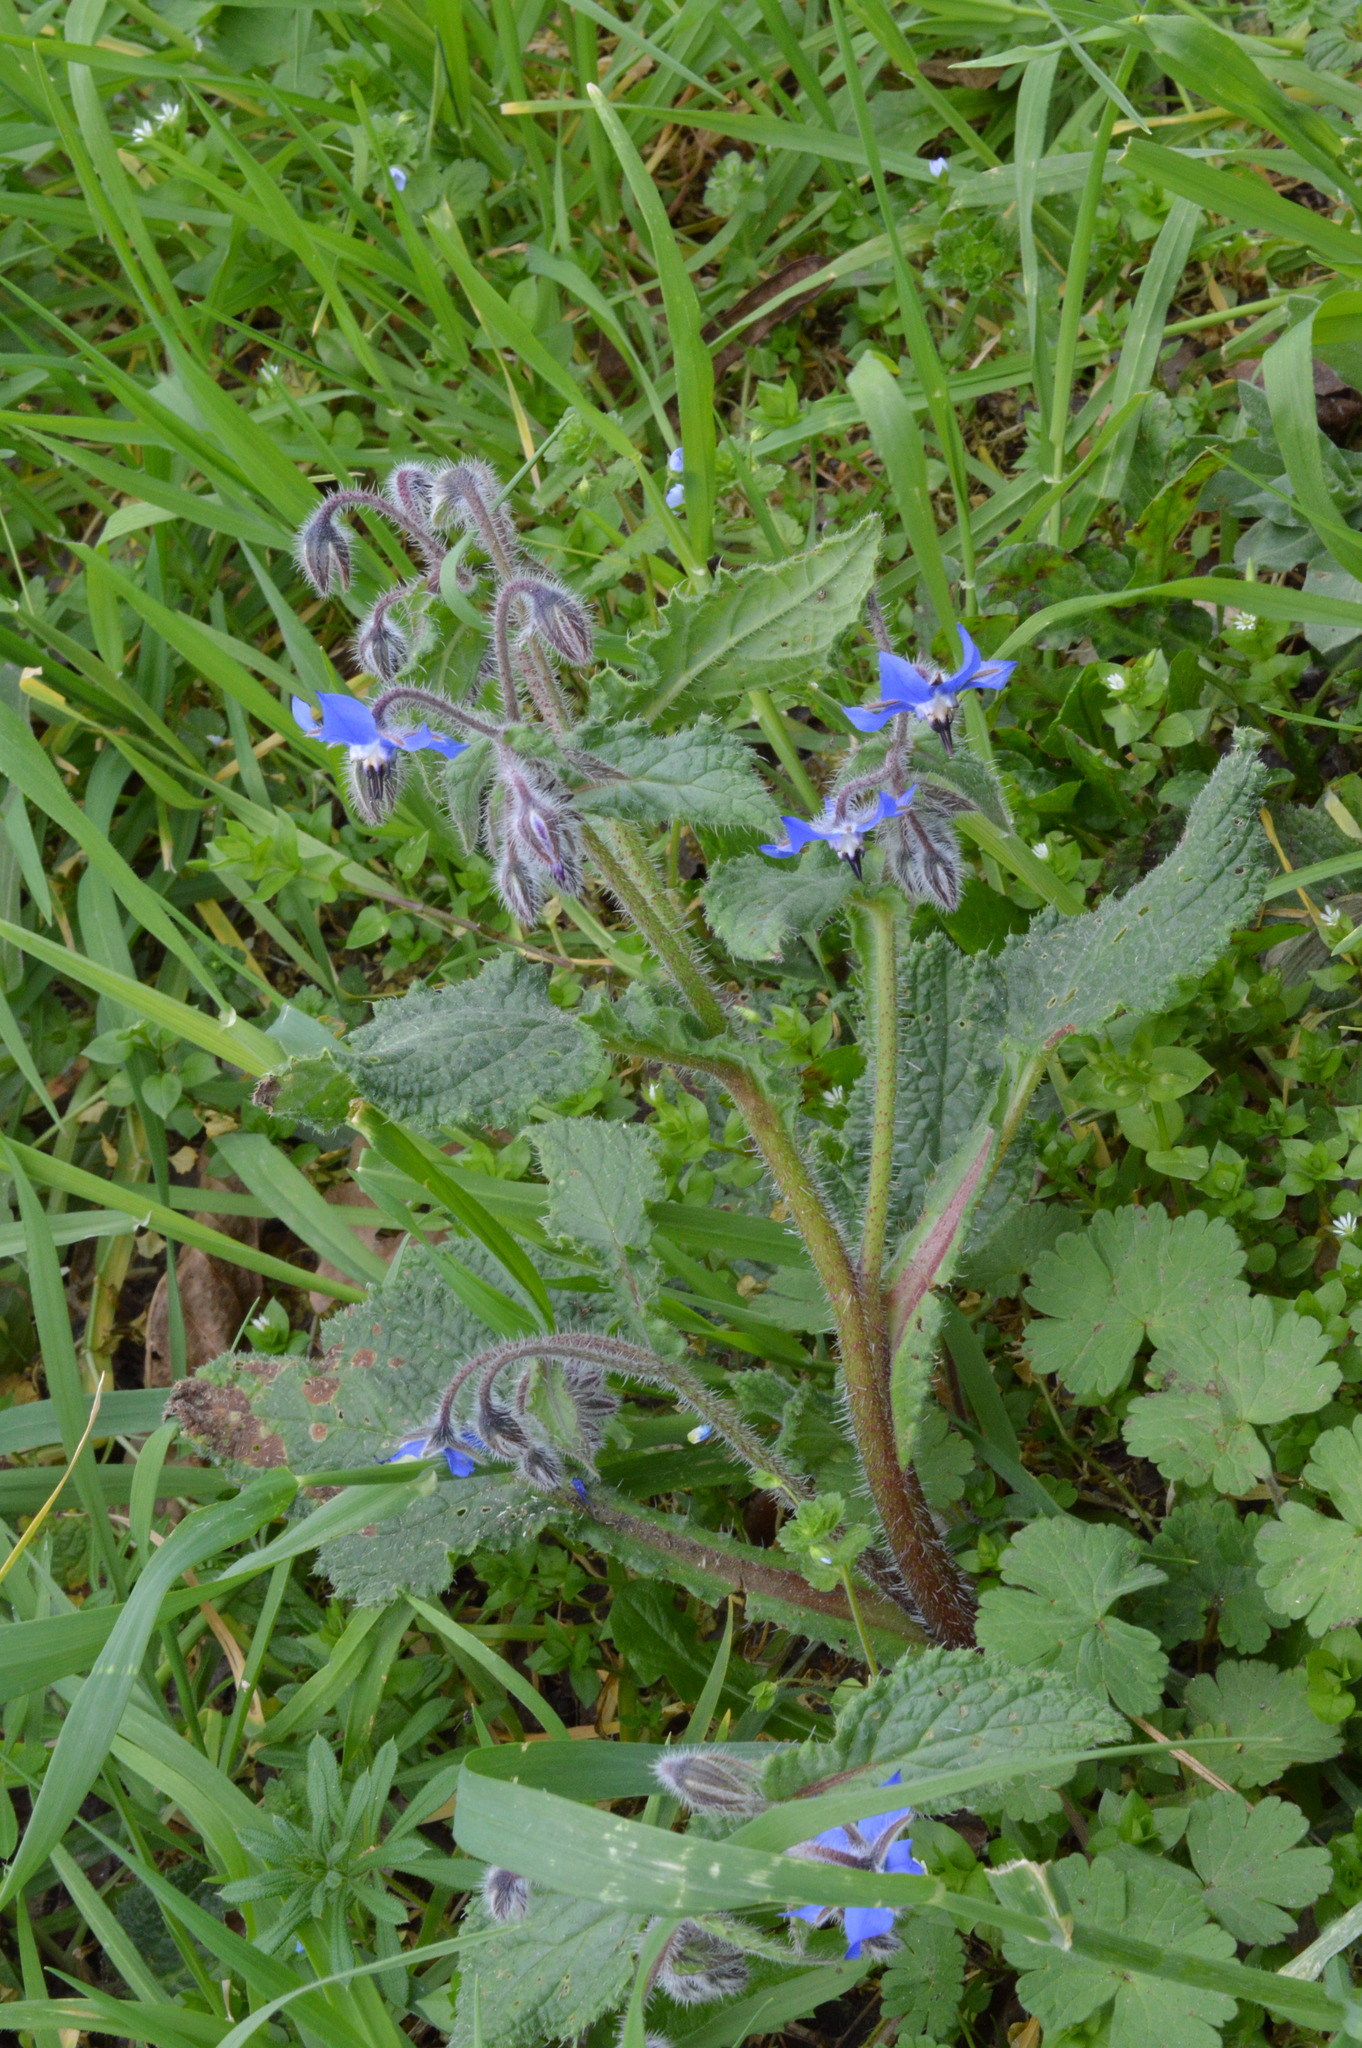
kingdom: Plantae
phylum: Tracheophyta
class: Magnoliopsida
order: Boraginales
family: Boraginaceae
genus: Borago
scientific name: Borago officinalis
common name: Borage
